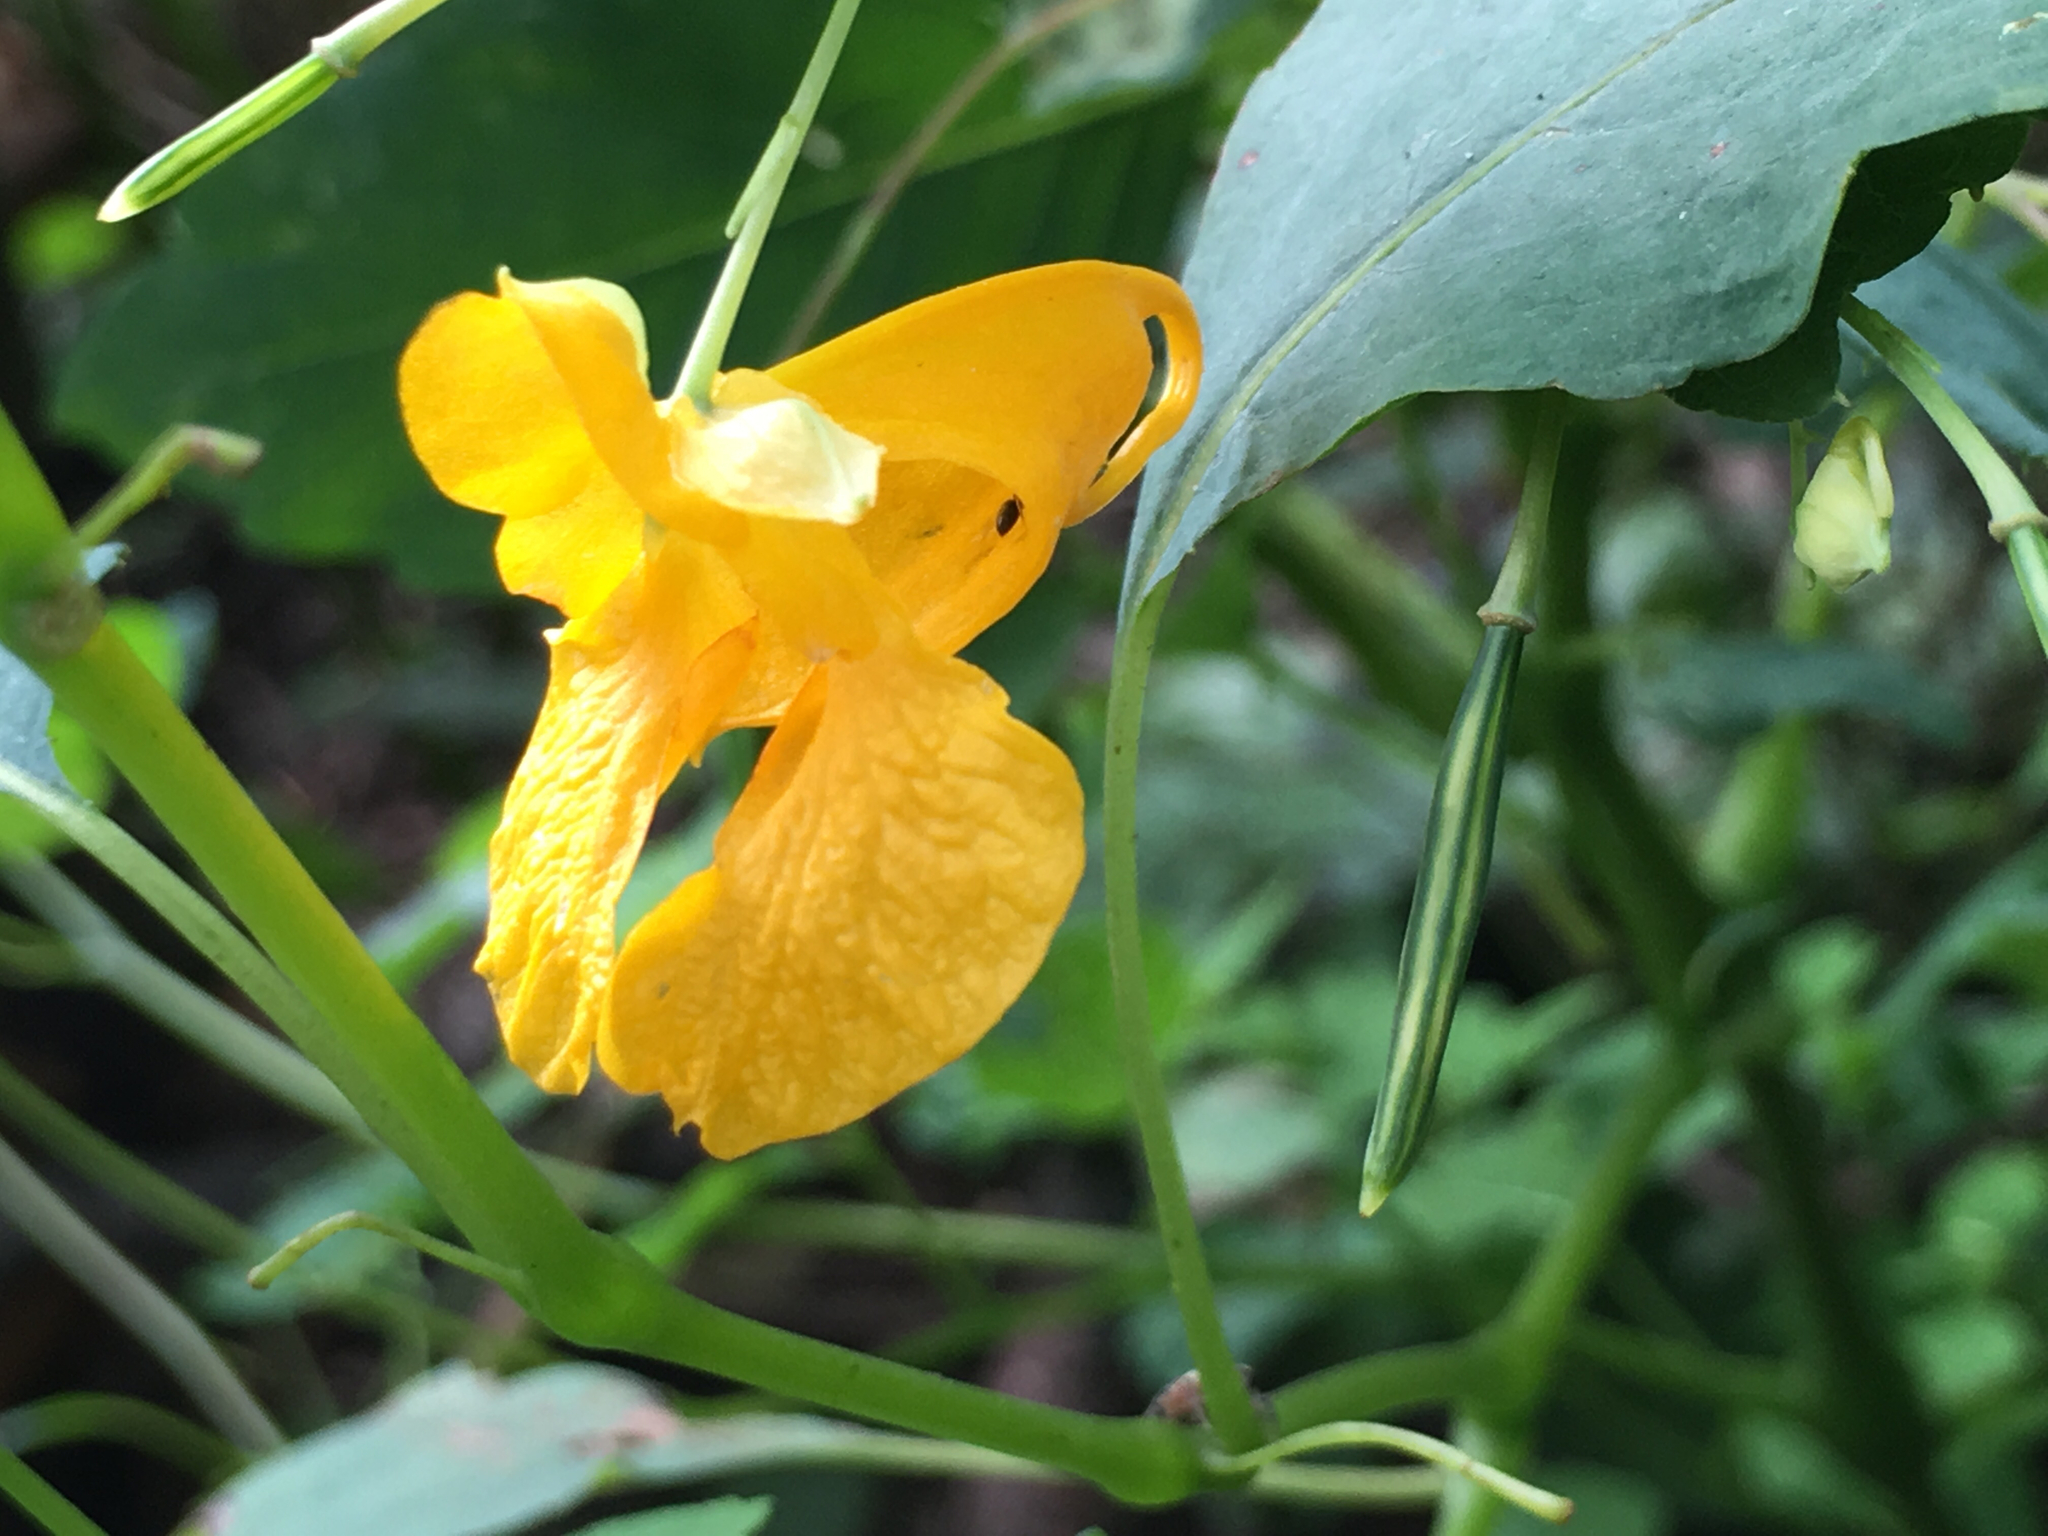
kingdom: Plantae
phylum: Tracheophyta
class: Magnoliopsida
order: Ericales
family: Balsaminaceae
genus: Impatiens
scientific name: Impatiens capensis
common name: Orange balsam
